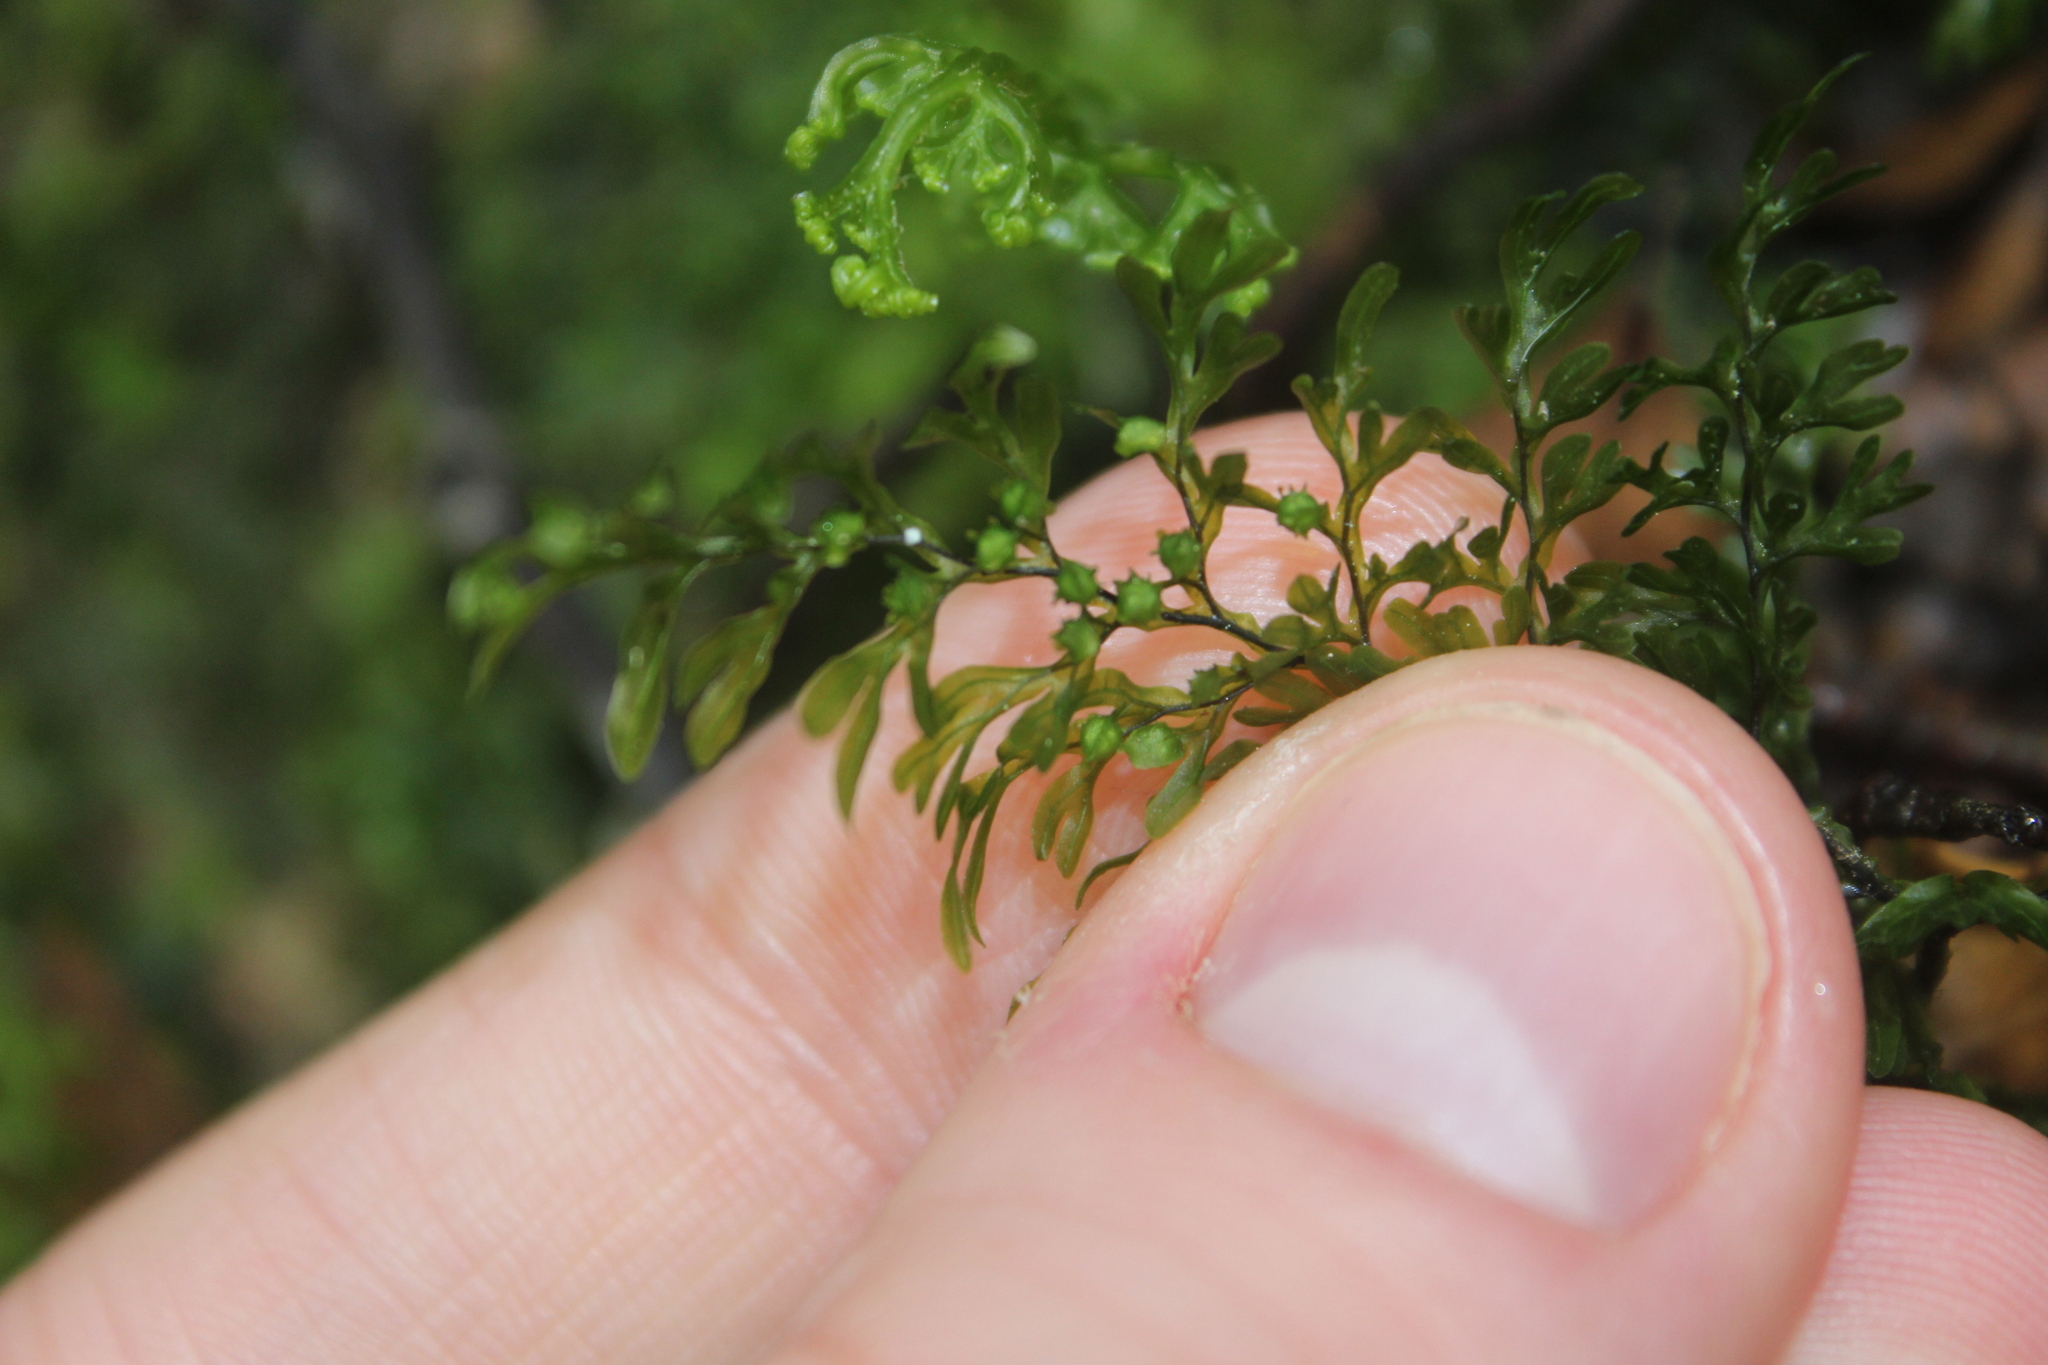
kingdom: Plantae
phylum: Tracheophyta
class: Polypodiopsida
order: Hymenophyllales
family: Hymenophyllaceae
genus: Hymenophyllum
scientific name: Hymenophyllum sanguinolentum
